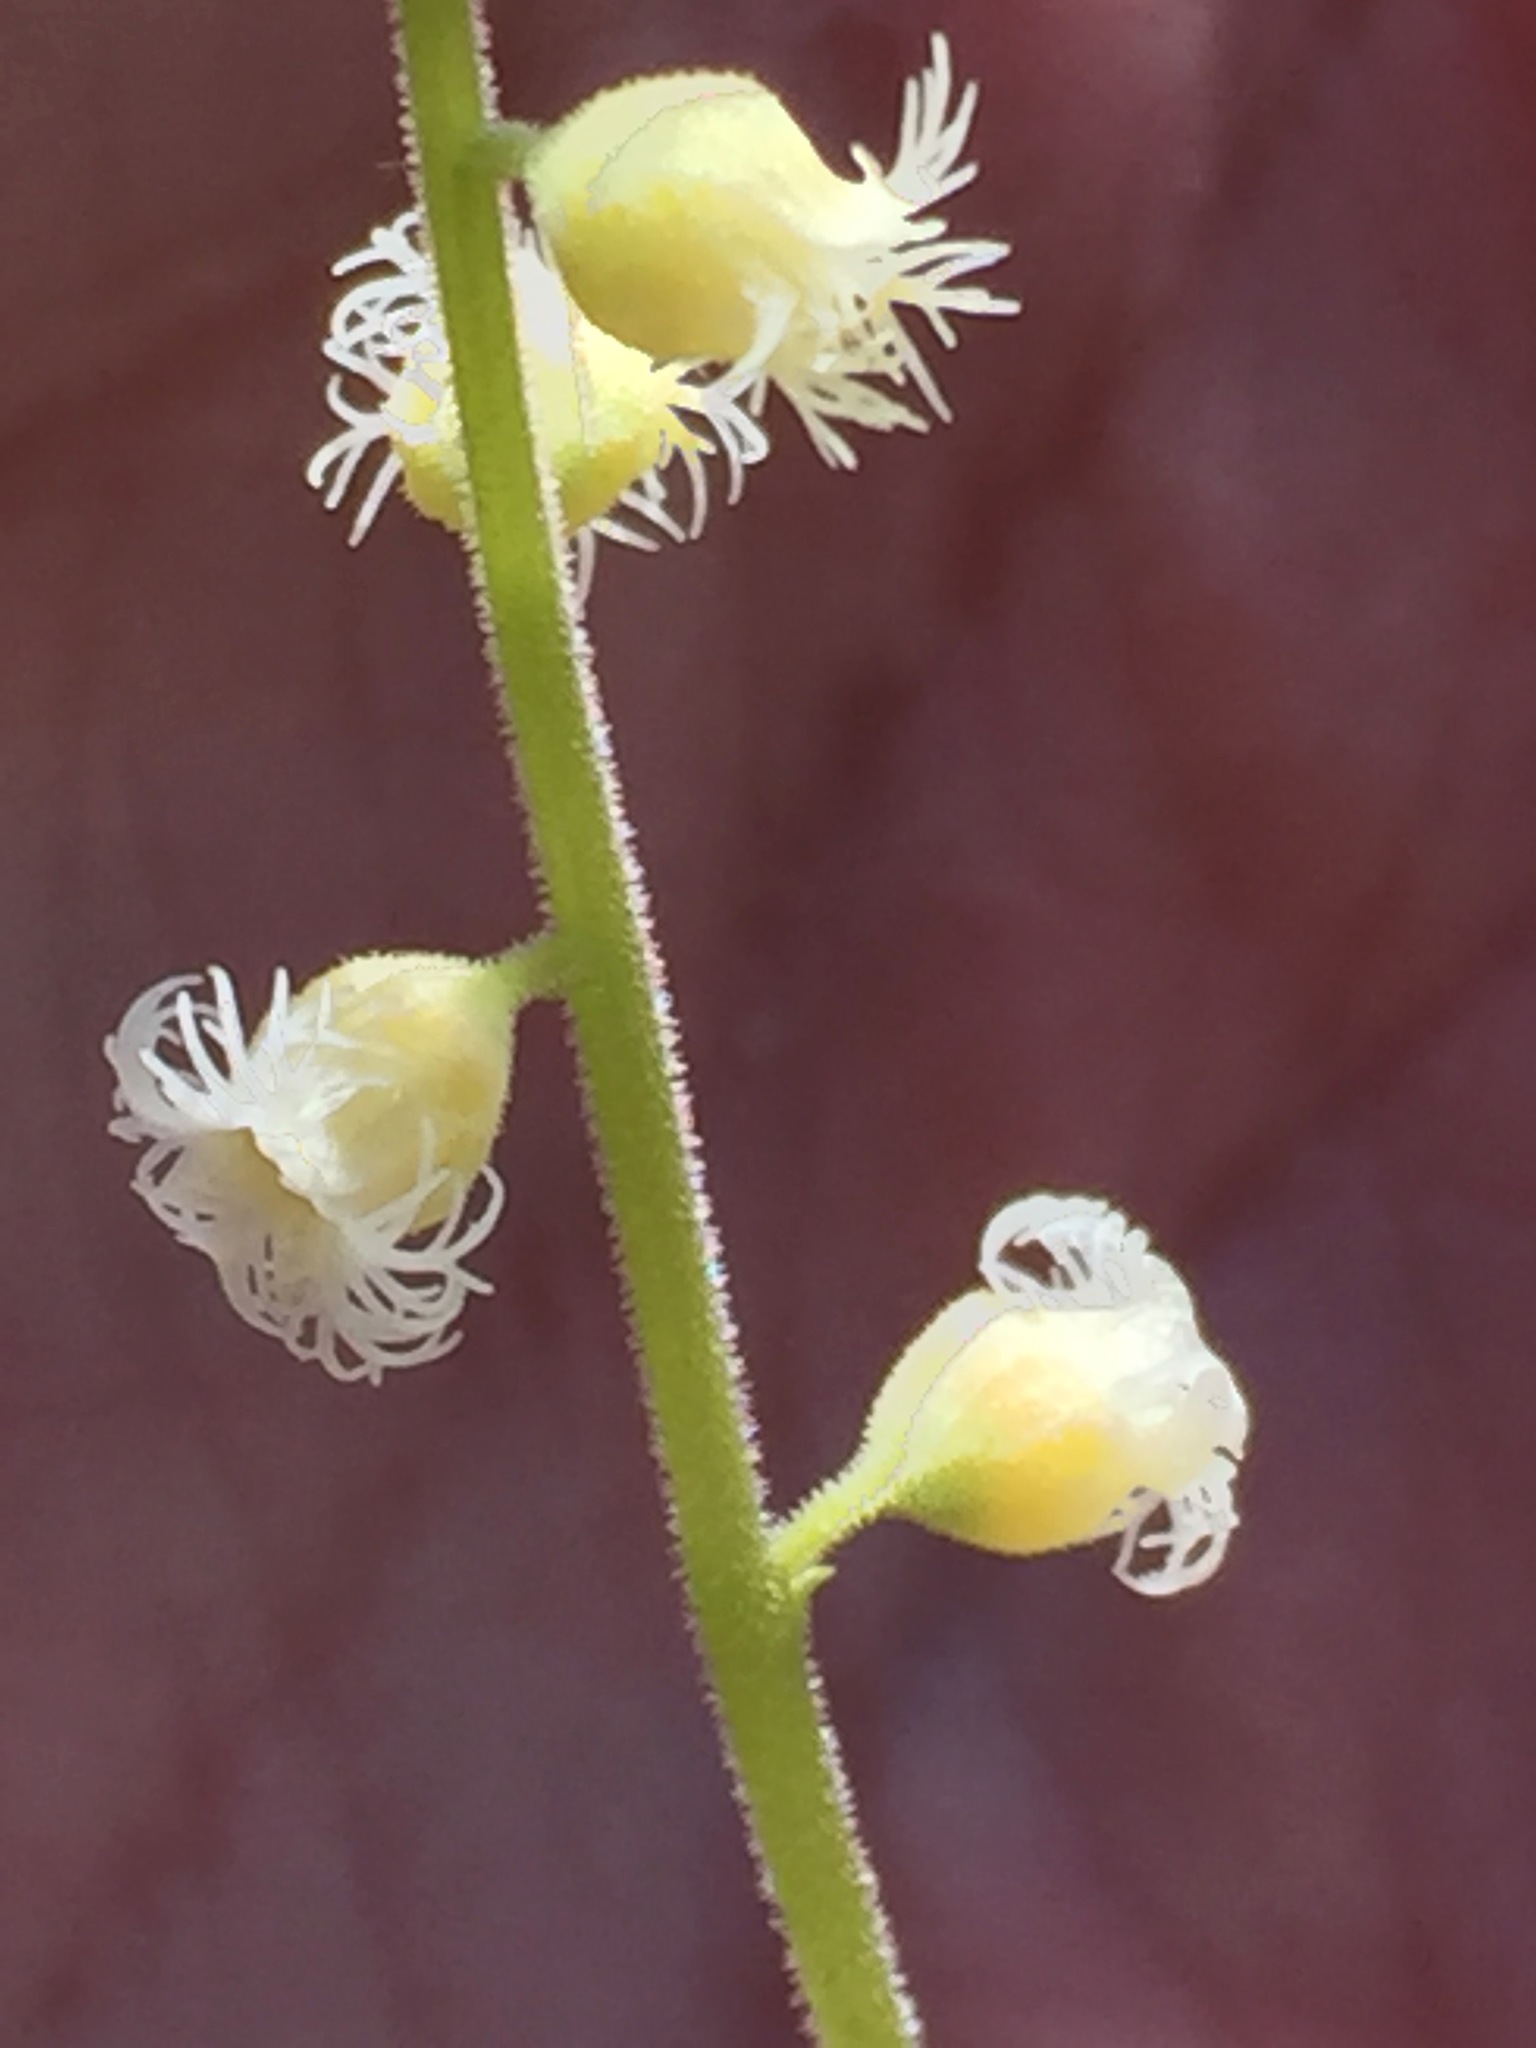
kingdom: Plantae
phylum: Tracheophyta
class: Magnoliopsida
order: Saxifragales
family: Saxifragaceae
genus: Mitella
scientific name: Mitella diphylla
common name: Coolwort
